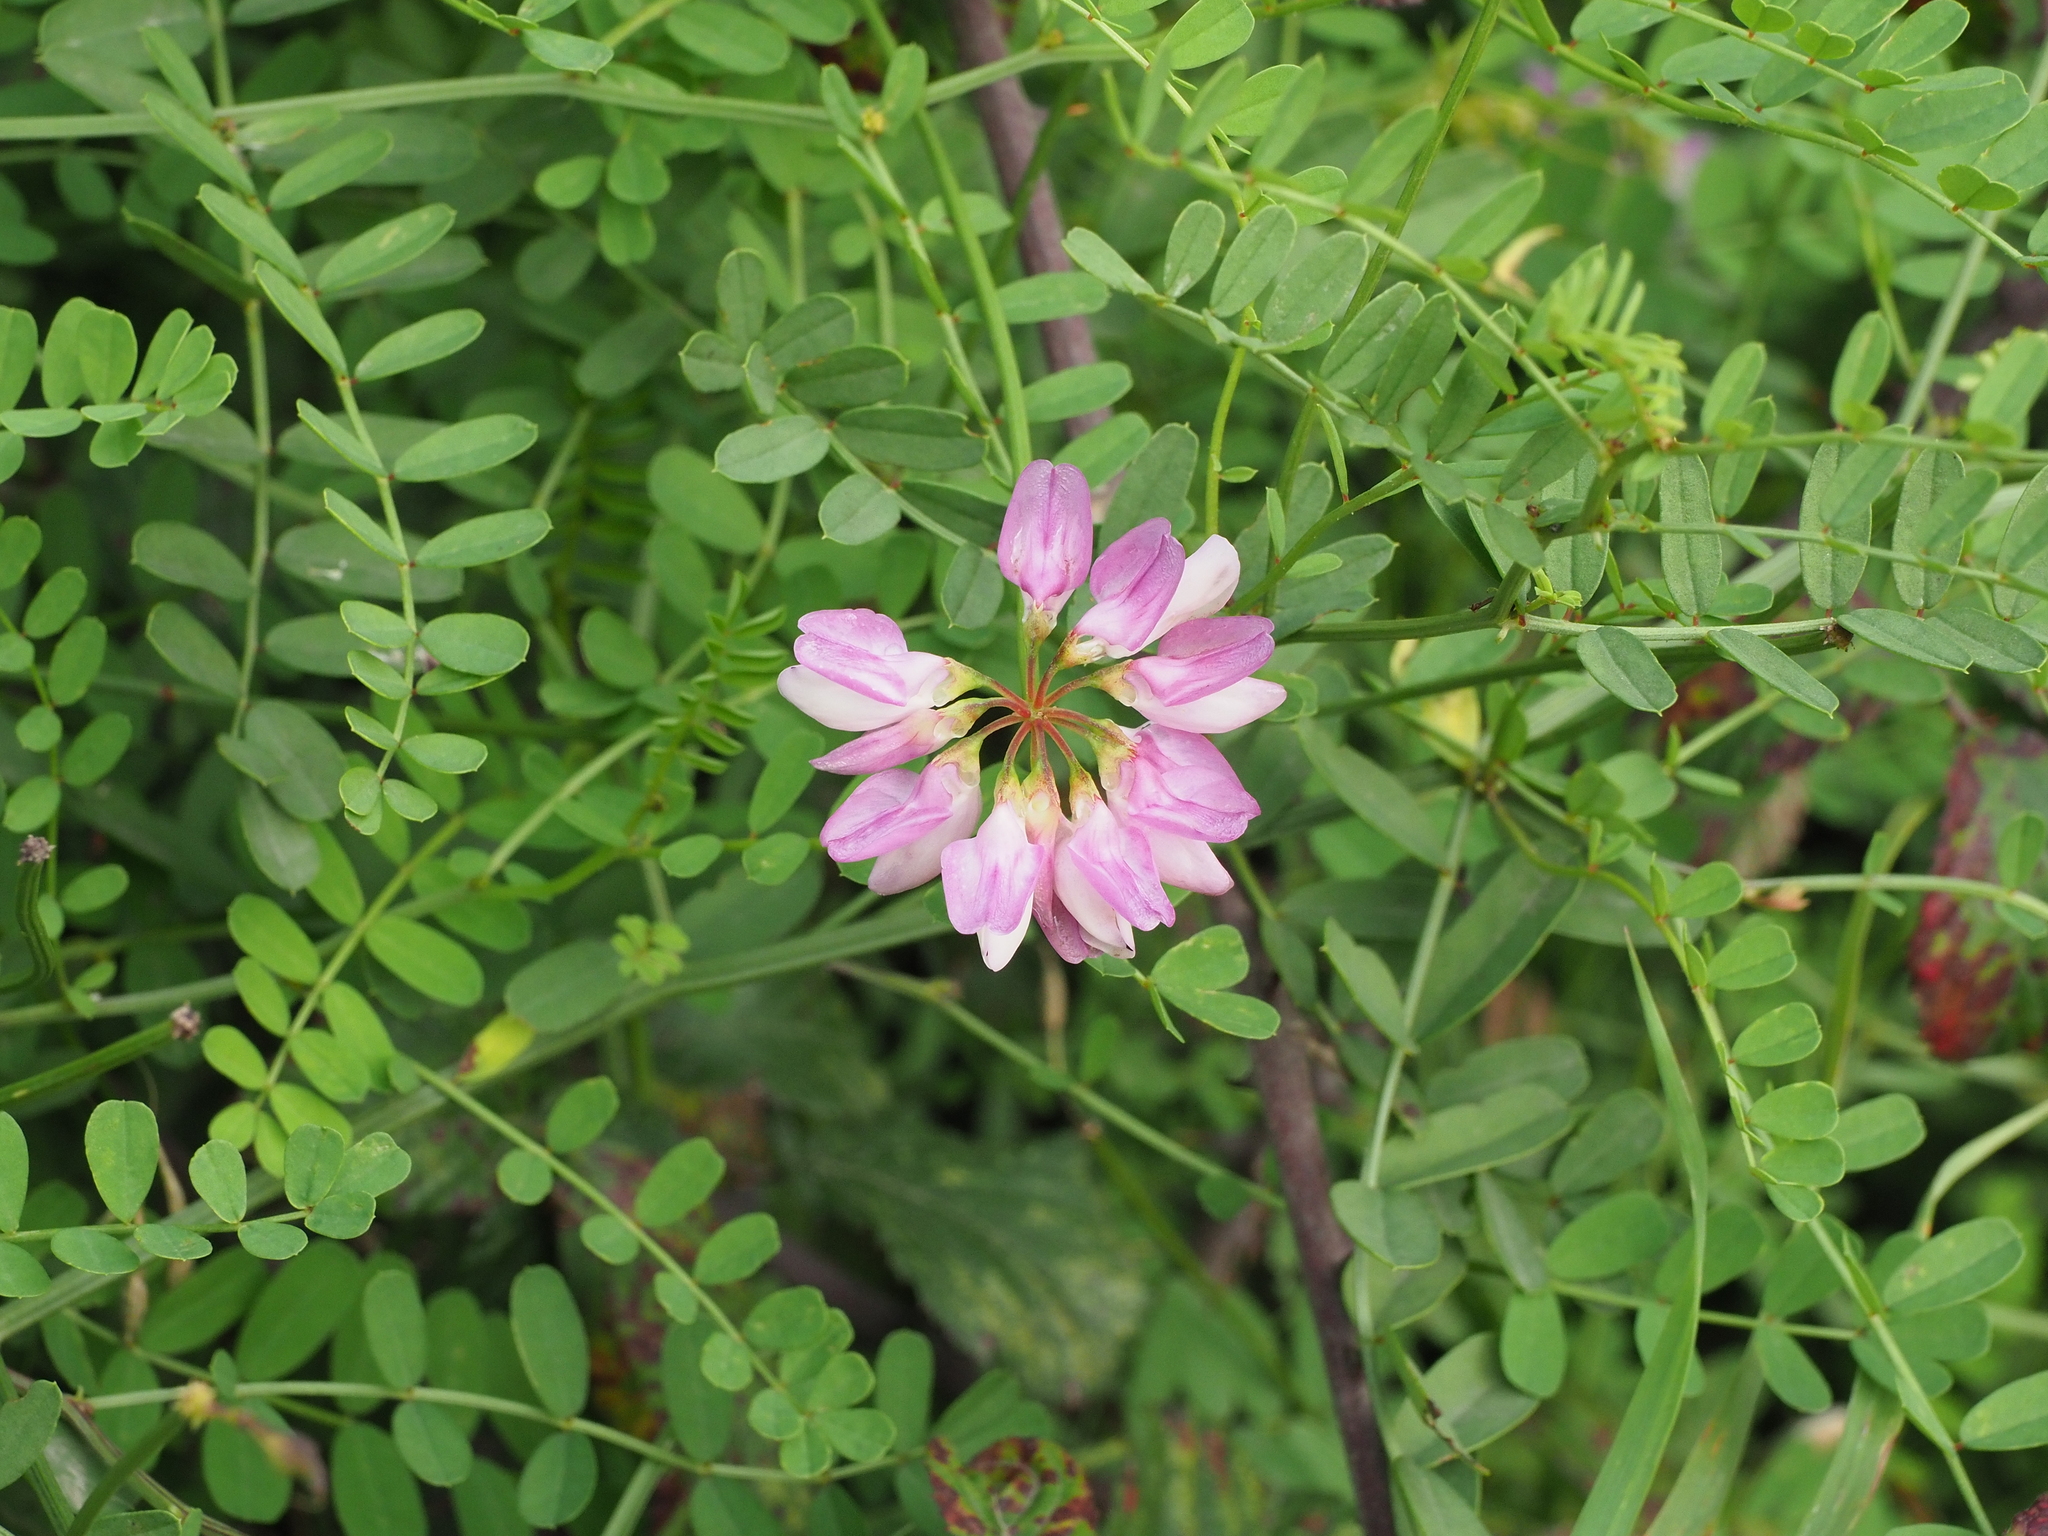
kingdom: Plantae
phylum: Tracheophyta
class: Magnoliopsida
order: Fabales
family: Fabaceae
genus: Coronilla
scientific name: Coronilla varia
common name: Crownvetch
